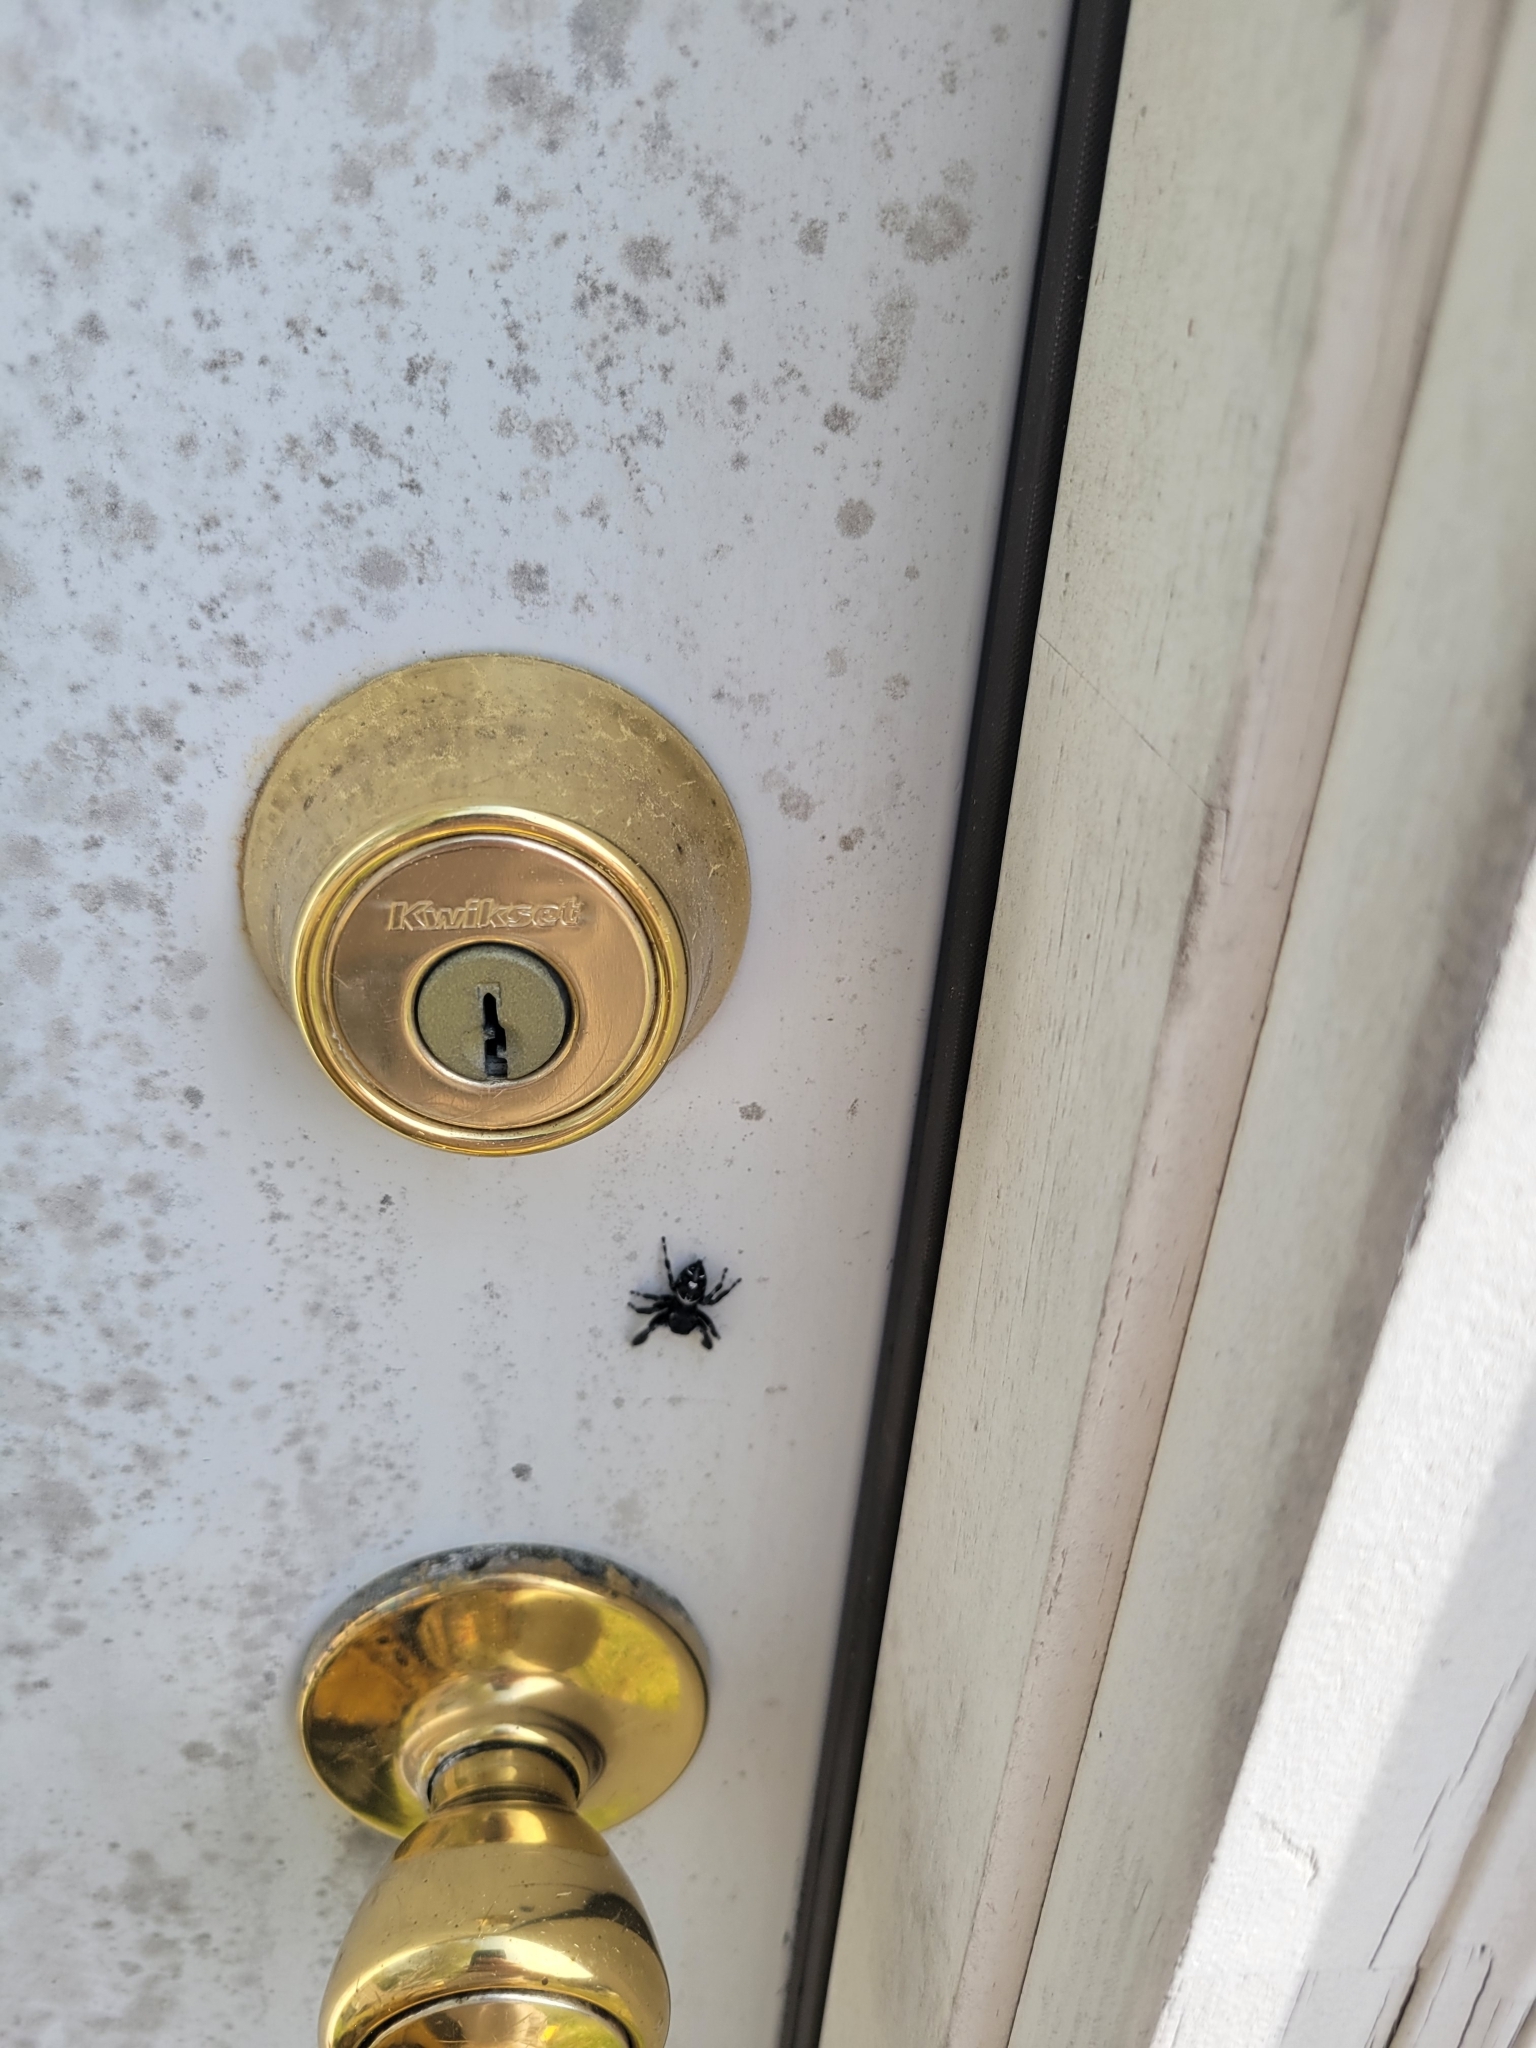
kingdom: Animalia
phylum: Arthropoda
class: Arachnida
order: Araneae
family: Salticidae
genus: Phidippus
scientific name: Phidippus audax
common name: Bold jumper
